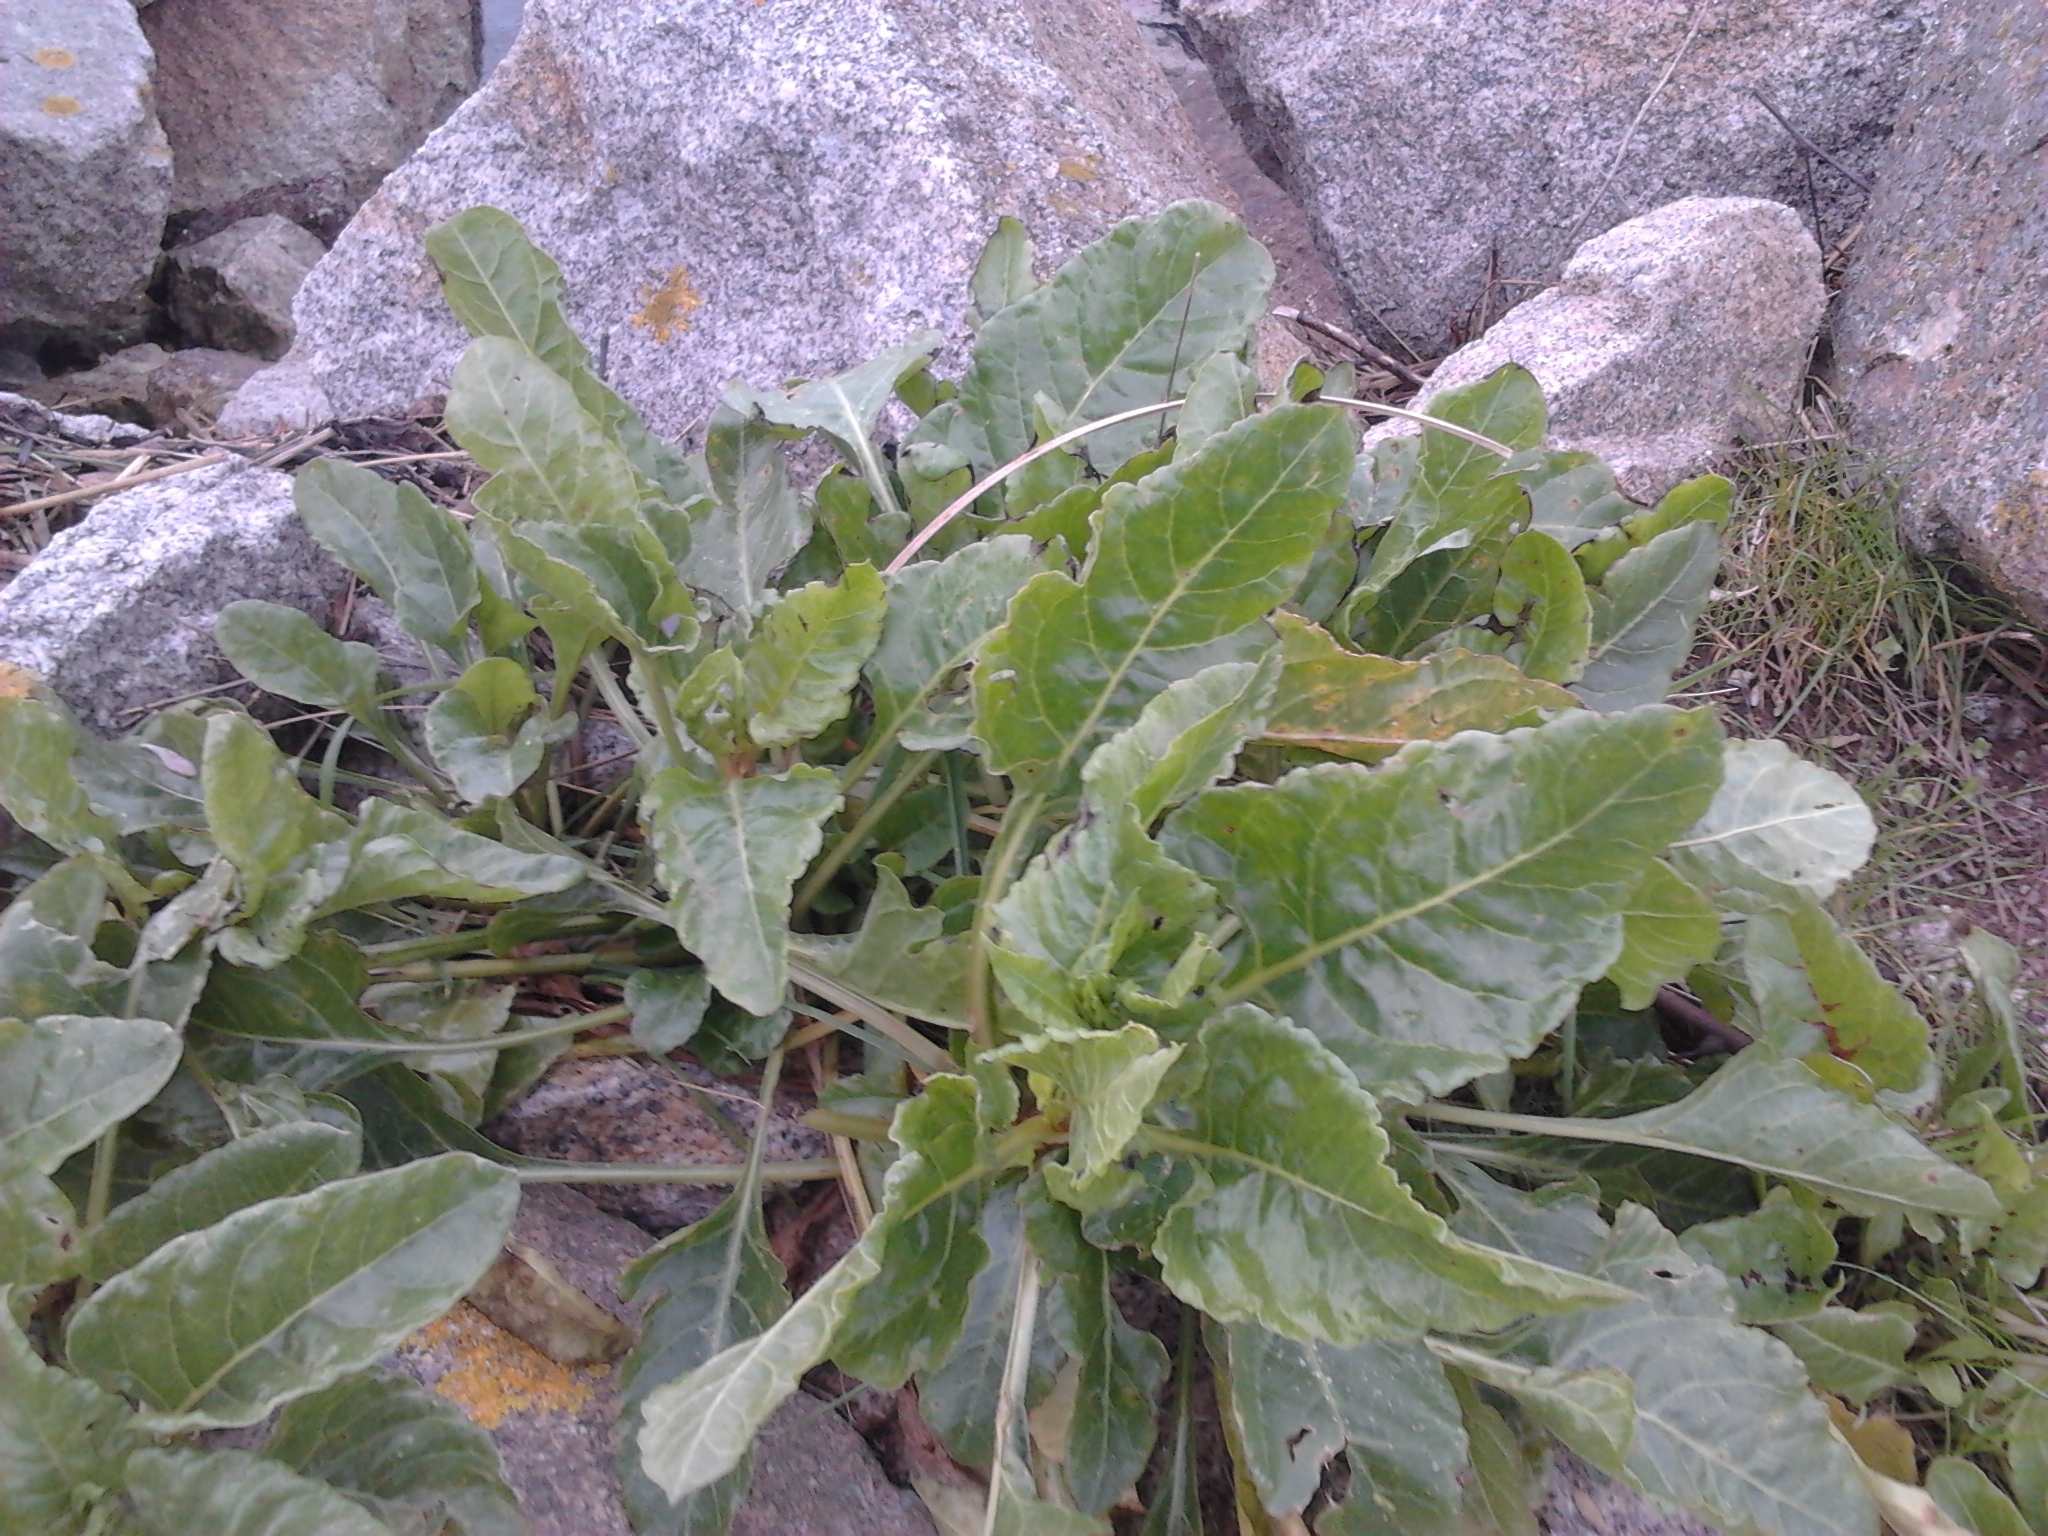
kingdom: Plantae
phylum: Tracheophyta
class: Magnoliopsida
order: Caryophyllales
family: Amaranthaceae
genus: Beta
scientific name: Beta vulgaris
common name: Beet
